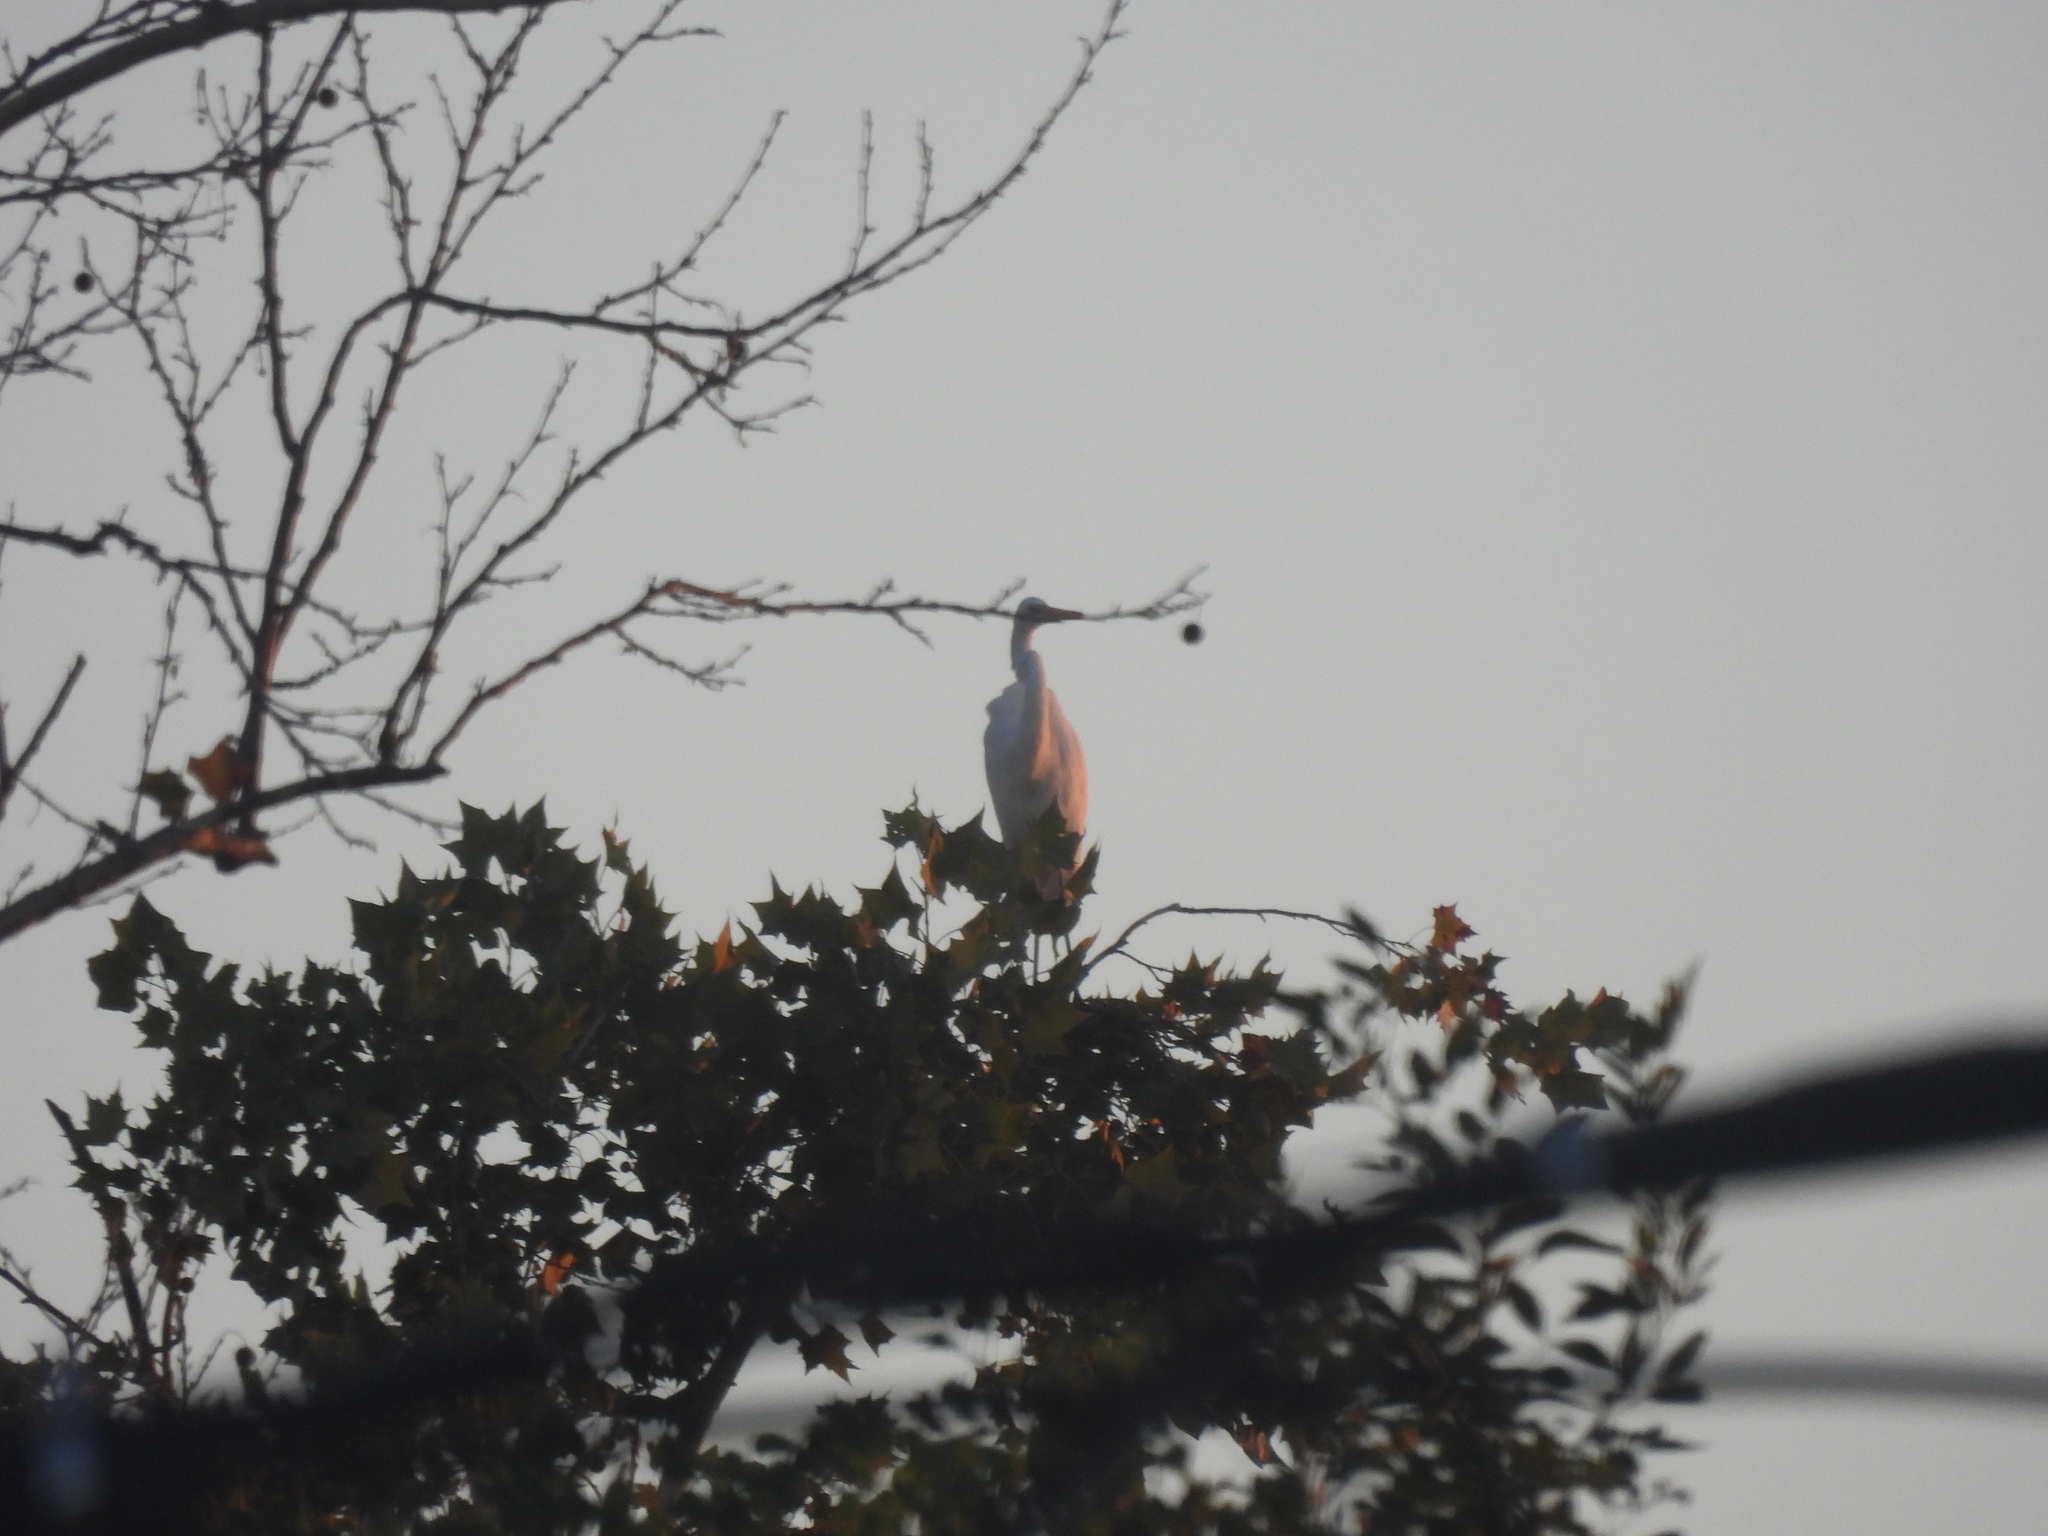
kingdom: Animalia
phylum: Chordata
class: Aves
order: Pelecaniformes
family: Ardeidae
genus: Ardea
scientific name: Ardea alba
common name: Great egret
